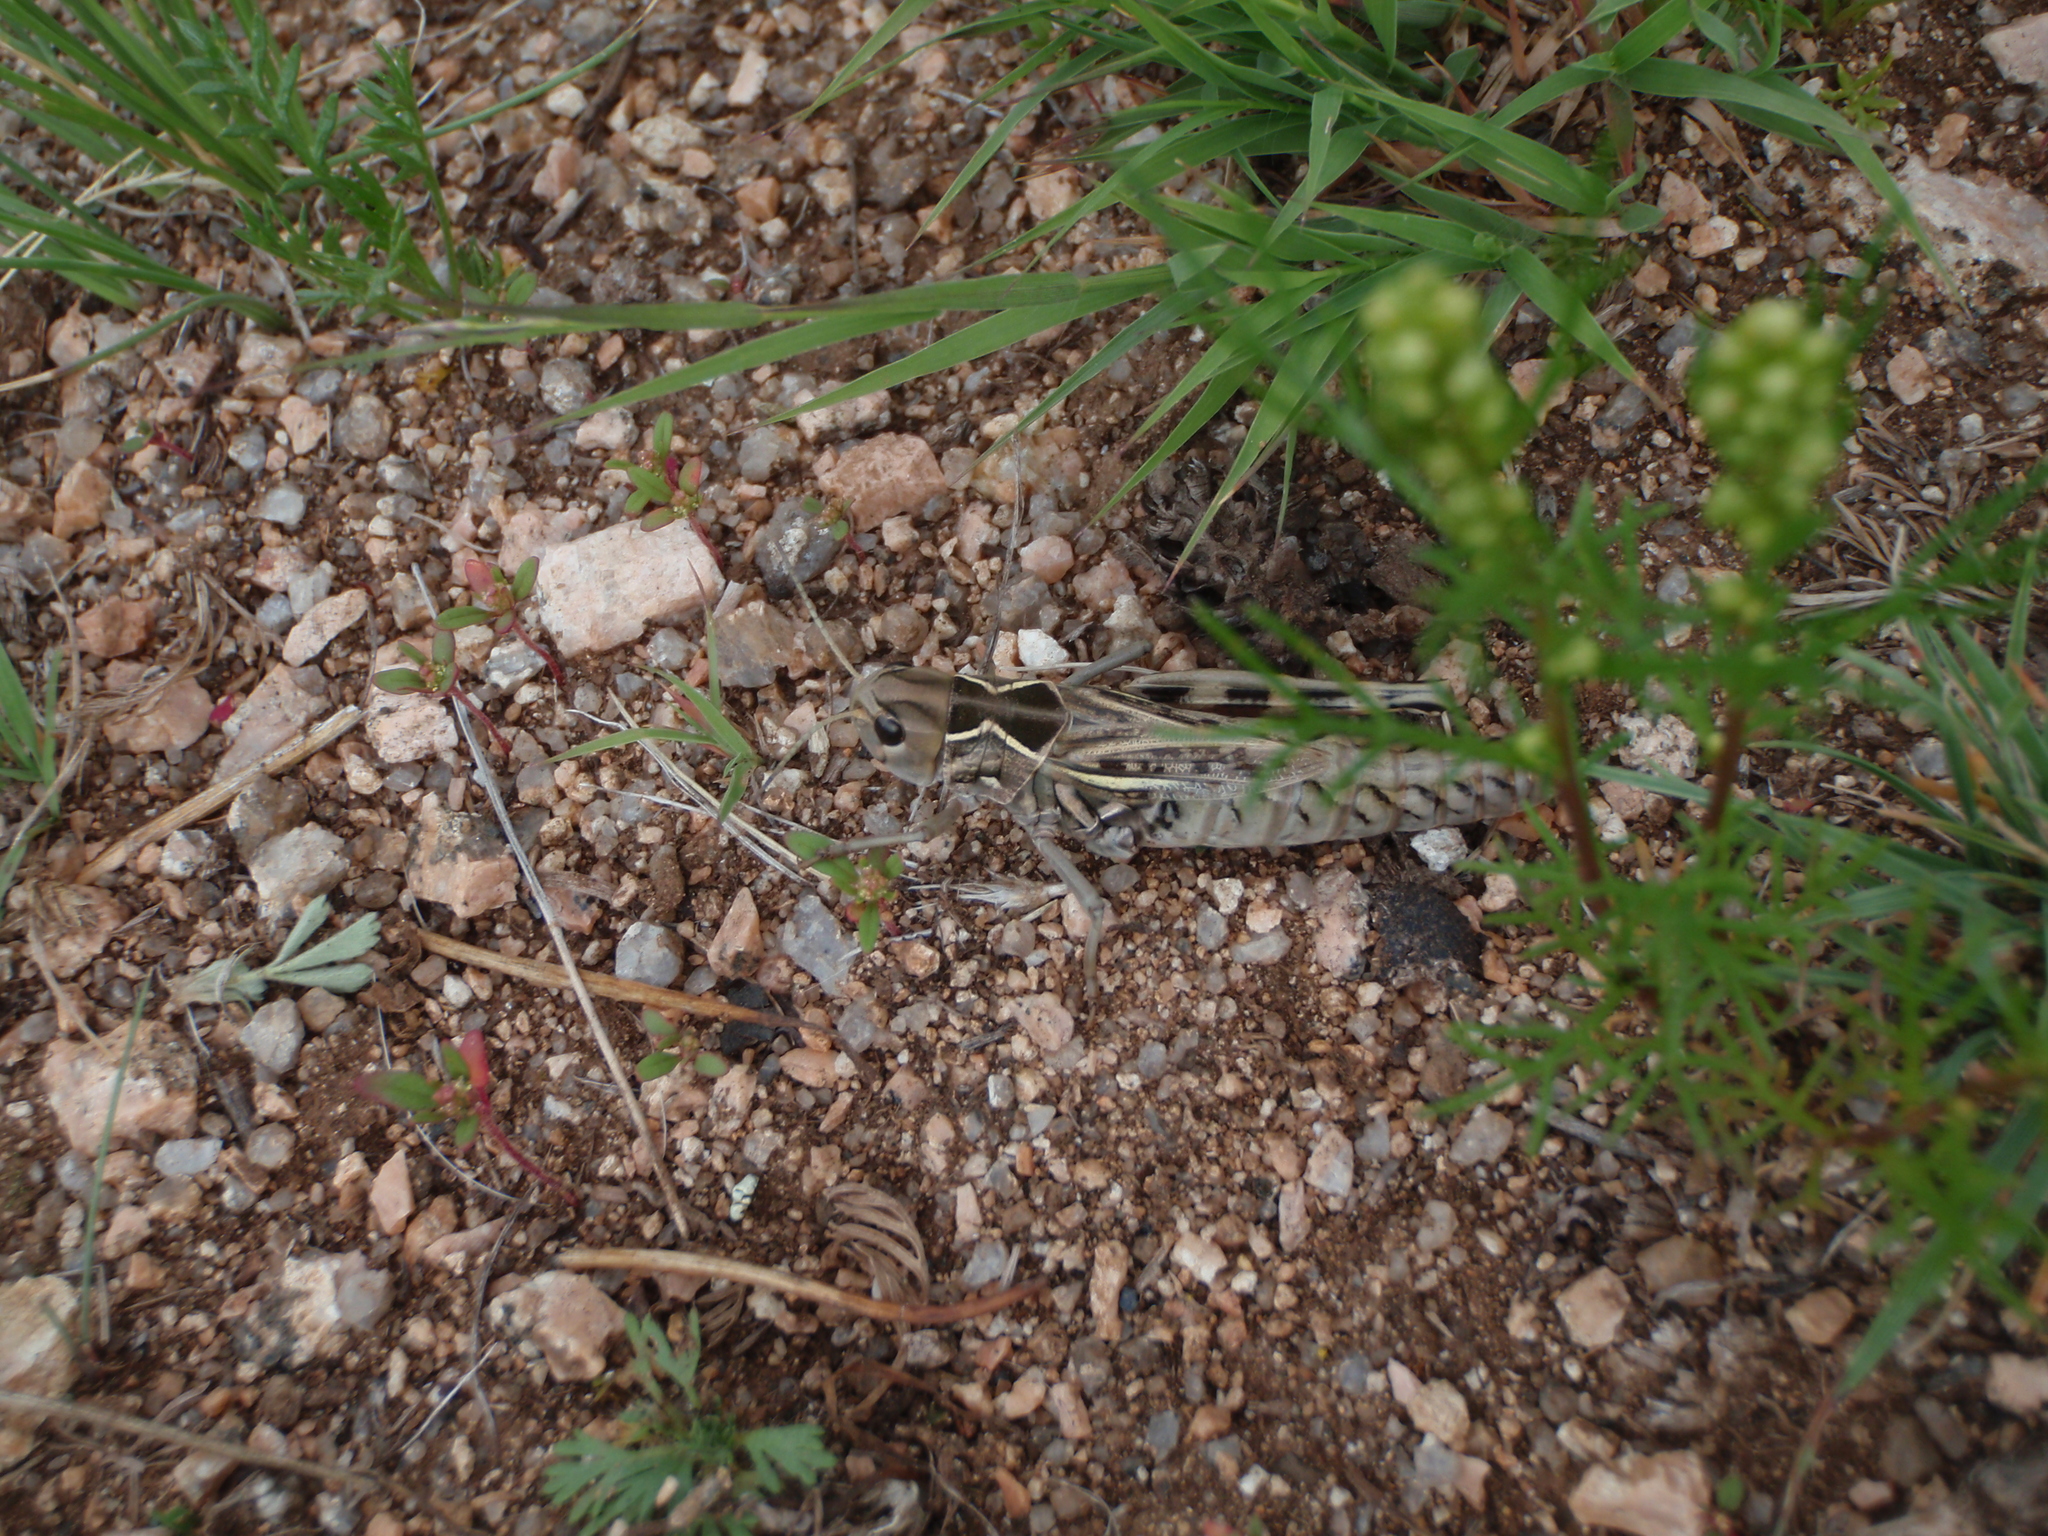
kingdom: Animalia
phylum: Arthropoda
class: Insecta
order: Orthoptera
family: Acrididae
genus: Arcyptera
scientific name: Arcyptera microptera
